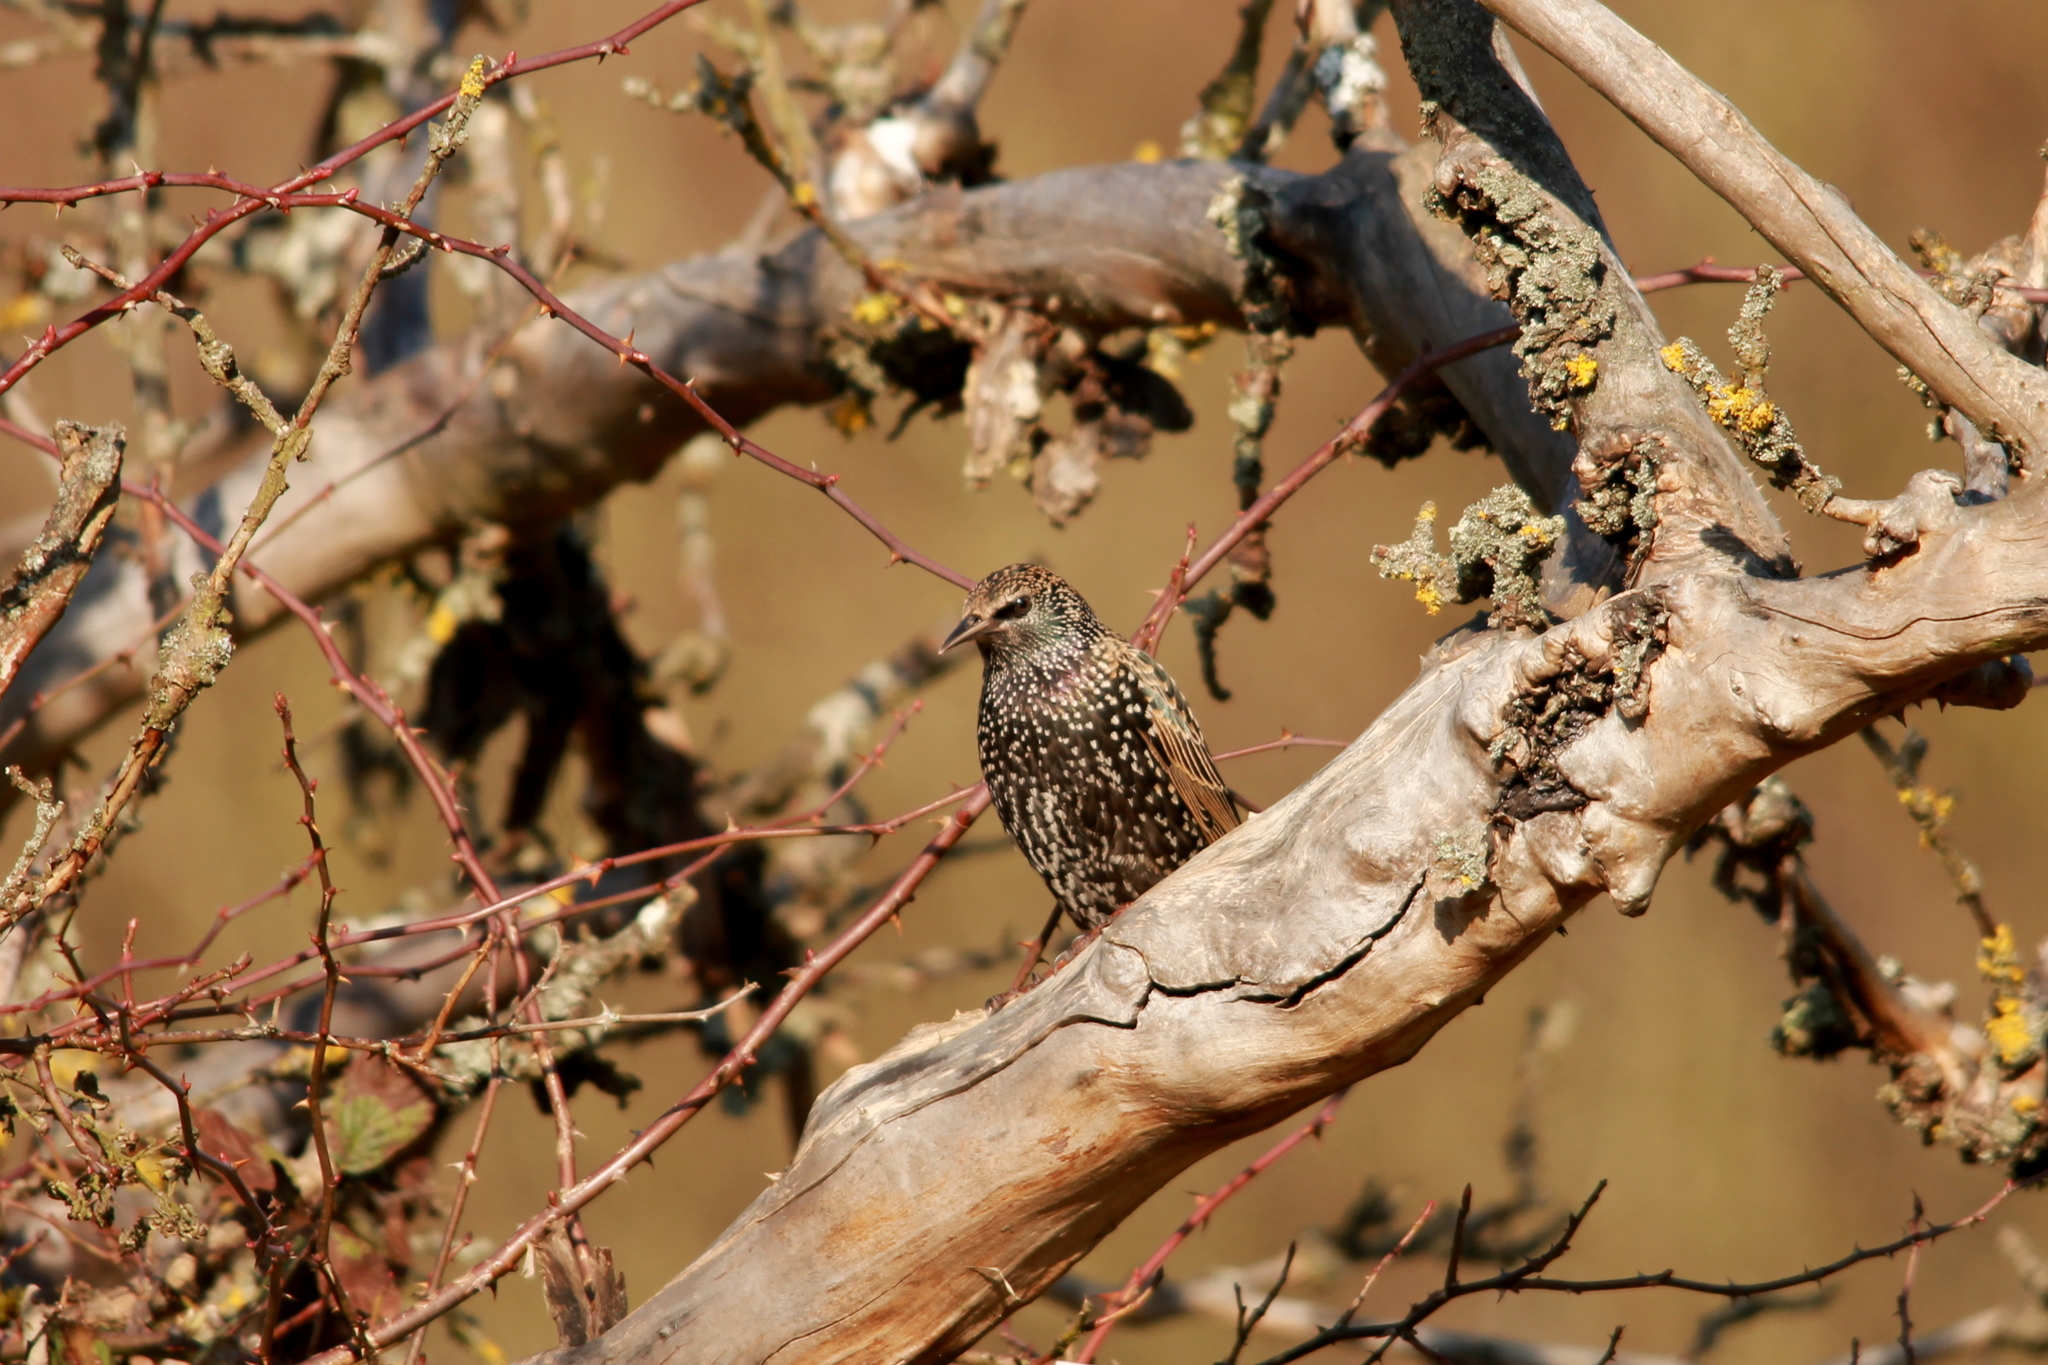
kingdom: Animalia
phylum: Chordata
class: Aves
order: Passeriformes
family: Sturnidae
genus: Sturnus
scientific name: Sturnus vulgaris
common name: Common starling
